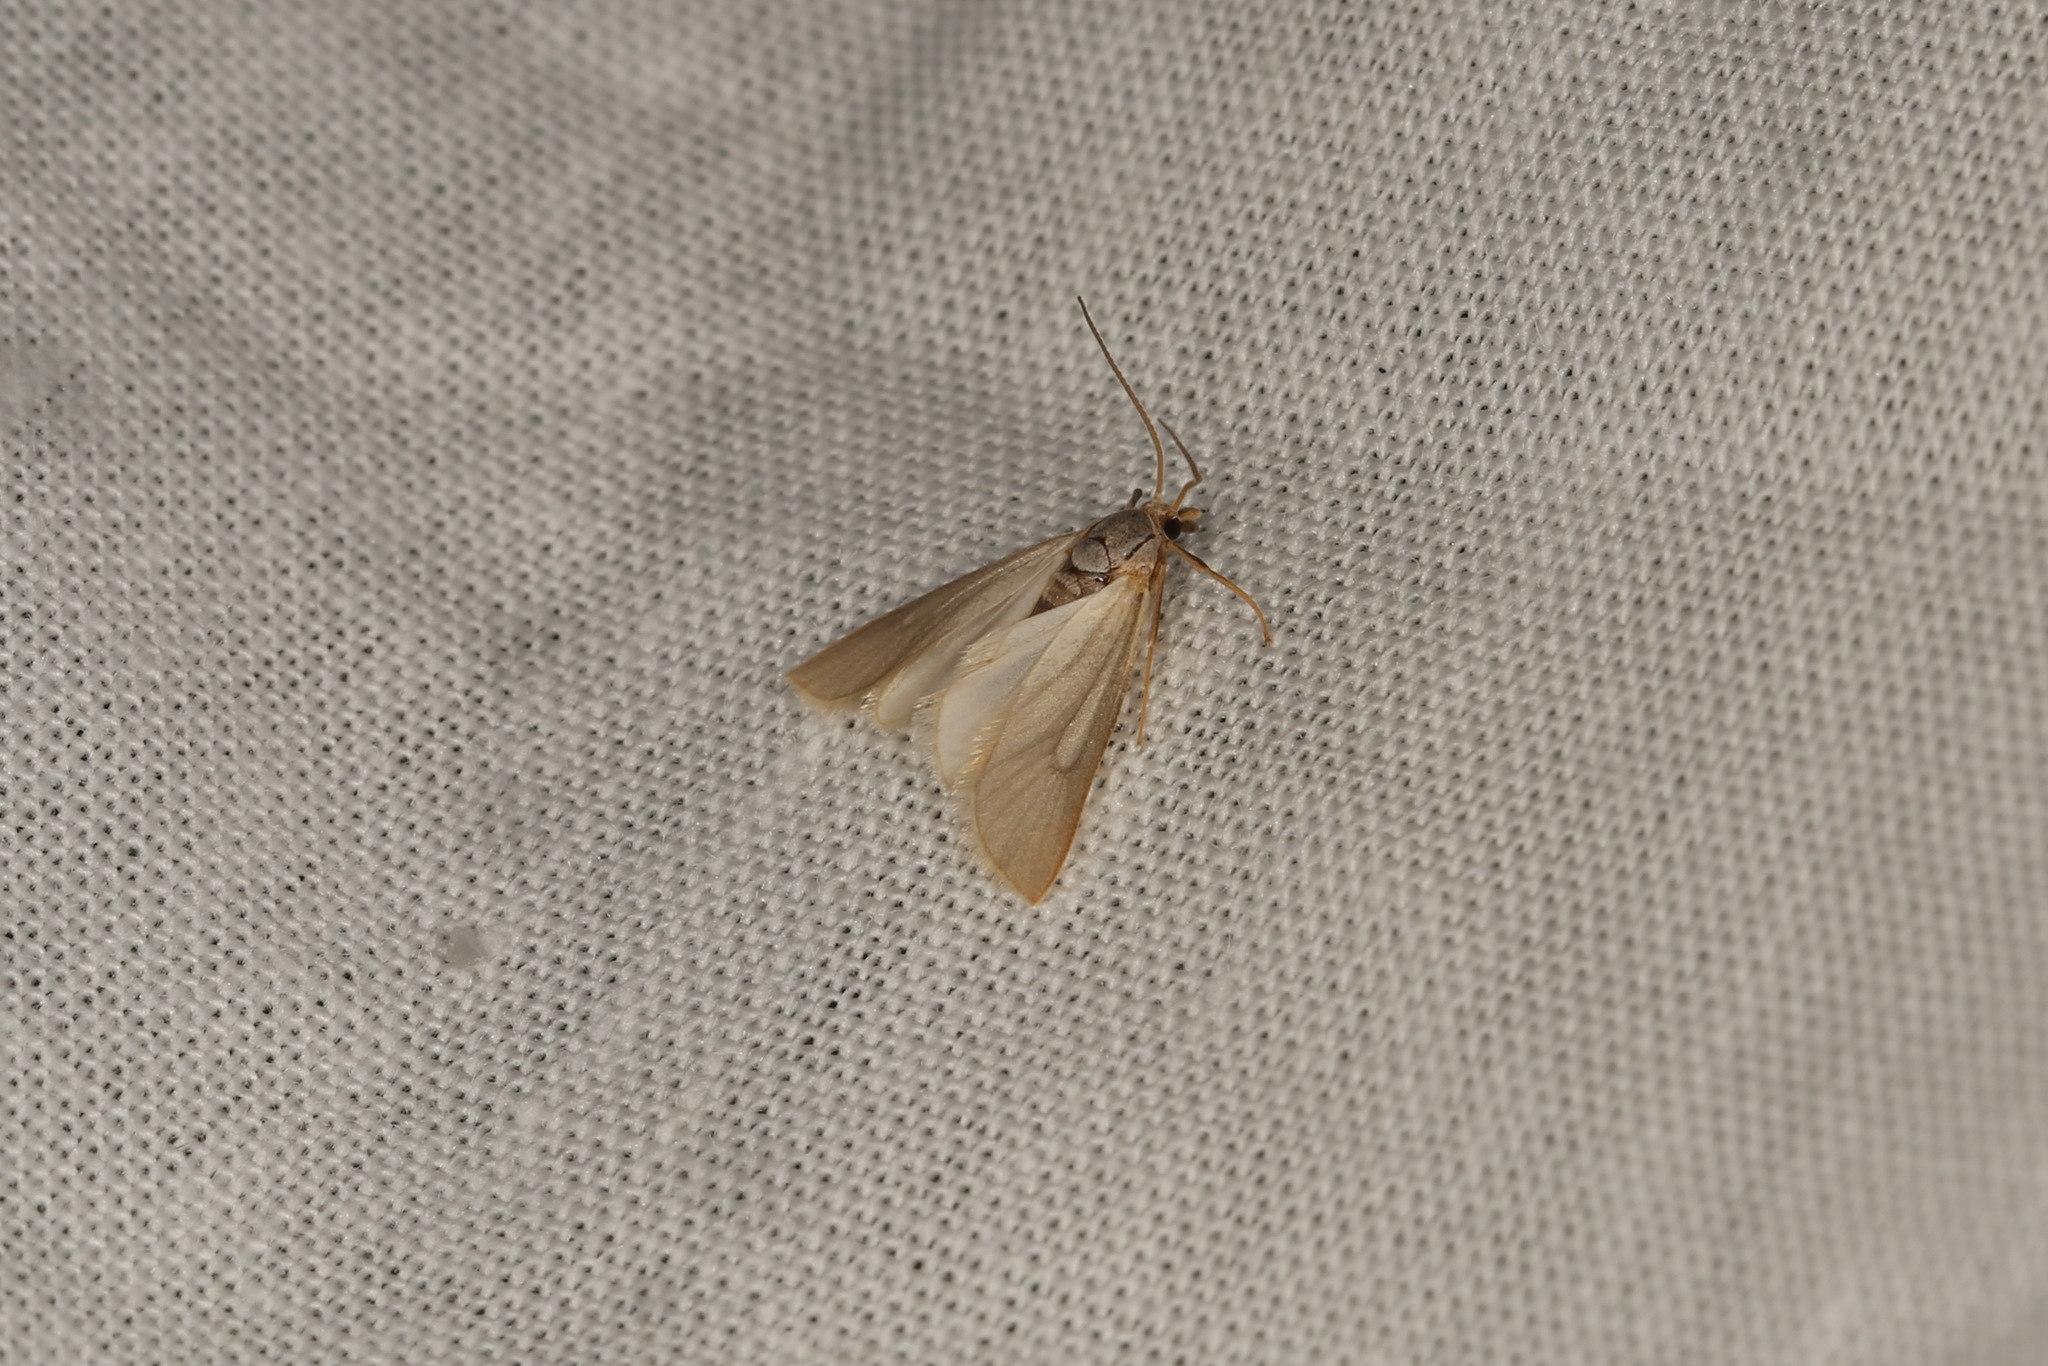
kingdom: Animalia
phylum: Arthropoda
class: Insecta
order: Lepidoptera
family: Crambidae
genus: Acentria
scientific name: Acentria ephemerella
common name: European water moth
